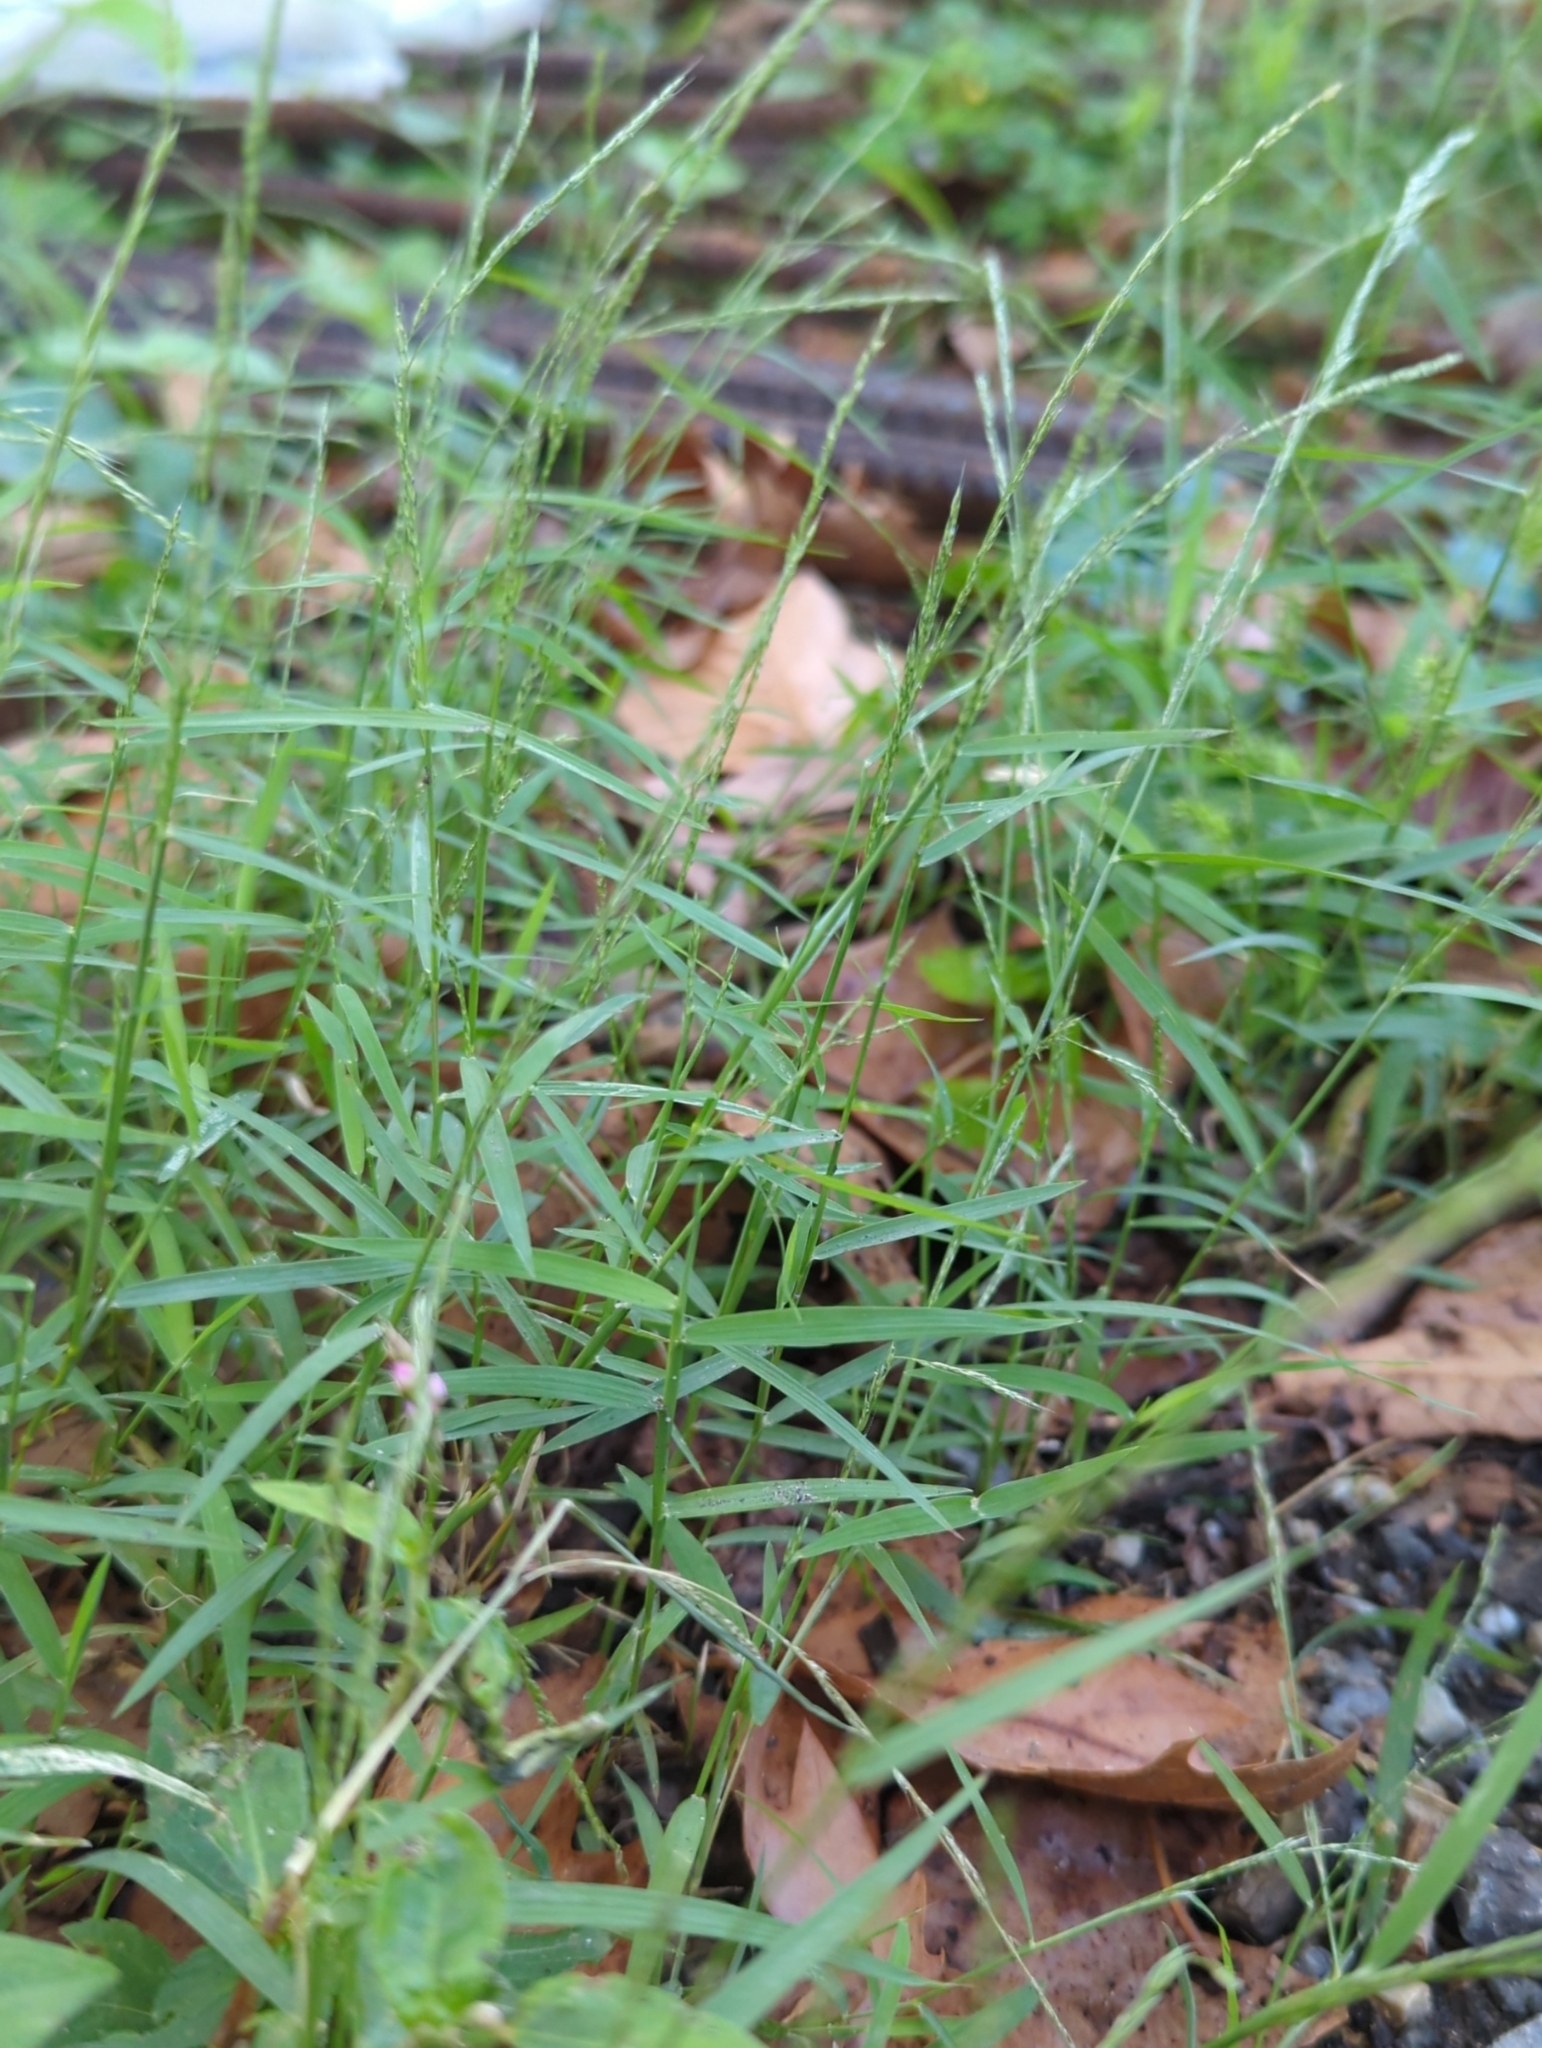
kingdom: Plantae
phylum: Tracheophyta
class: Liliopsida
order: Poales
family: Poaceae
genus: Muhlenbergia
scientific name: Muhlenbergia schreberi
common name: Nimblewill
